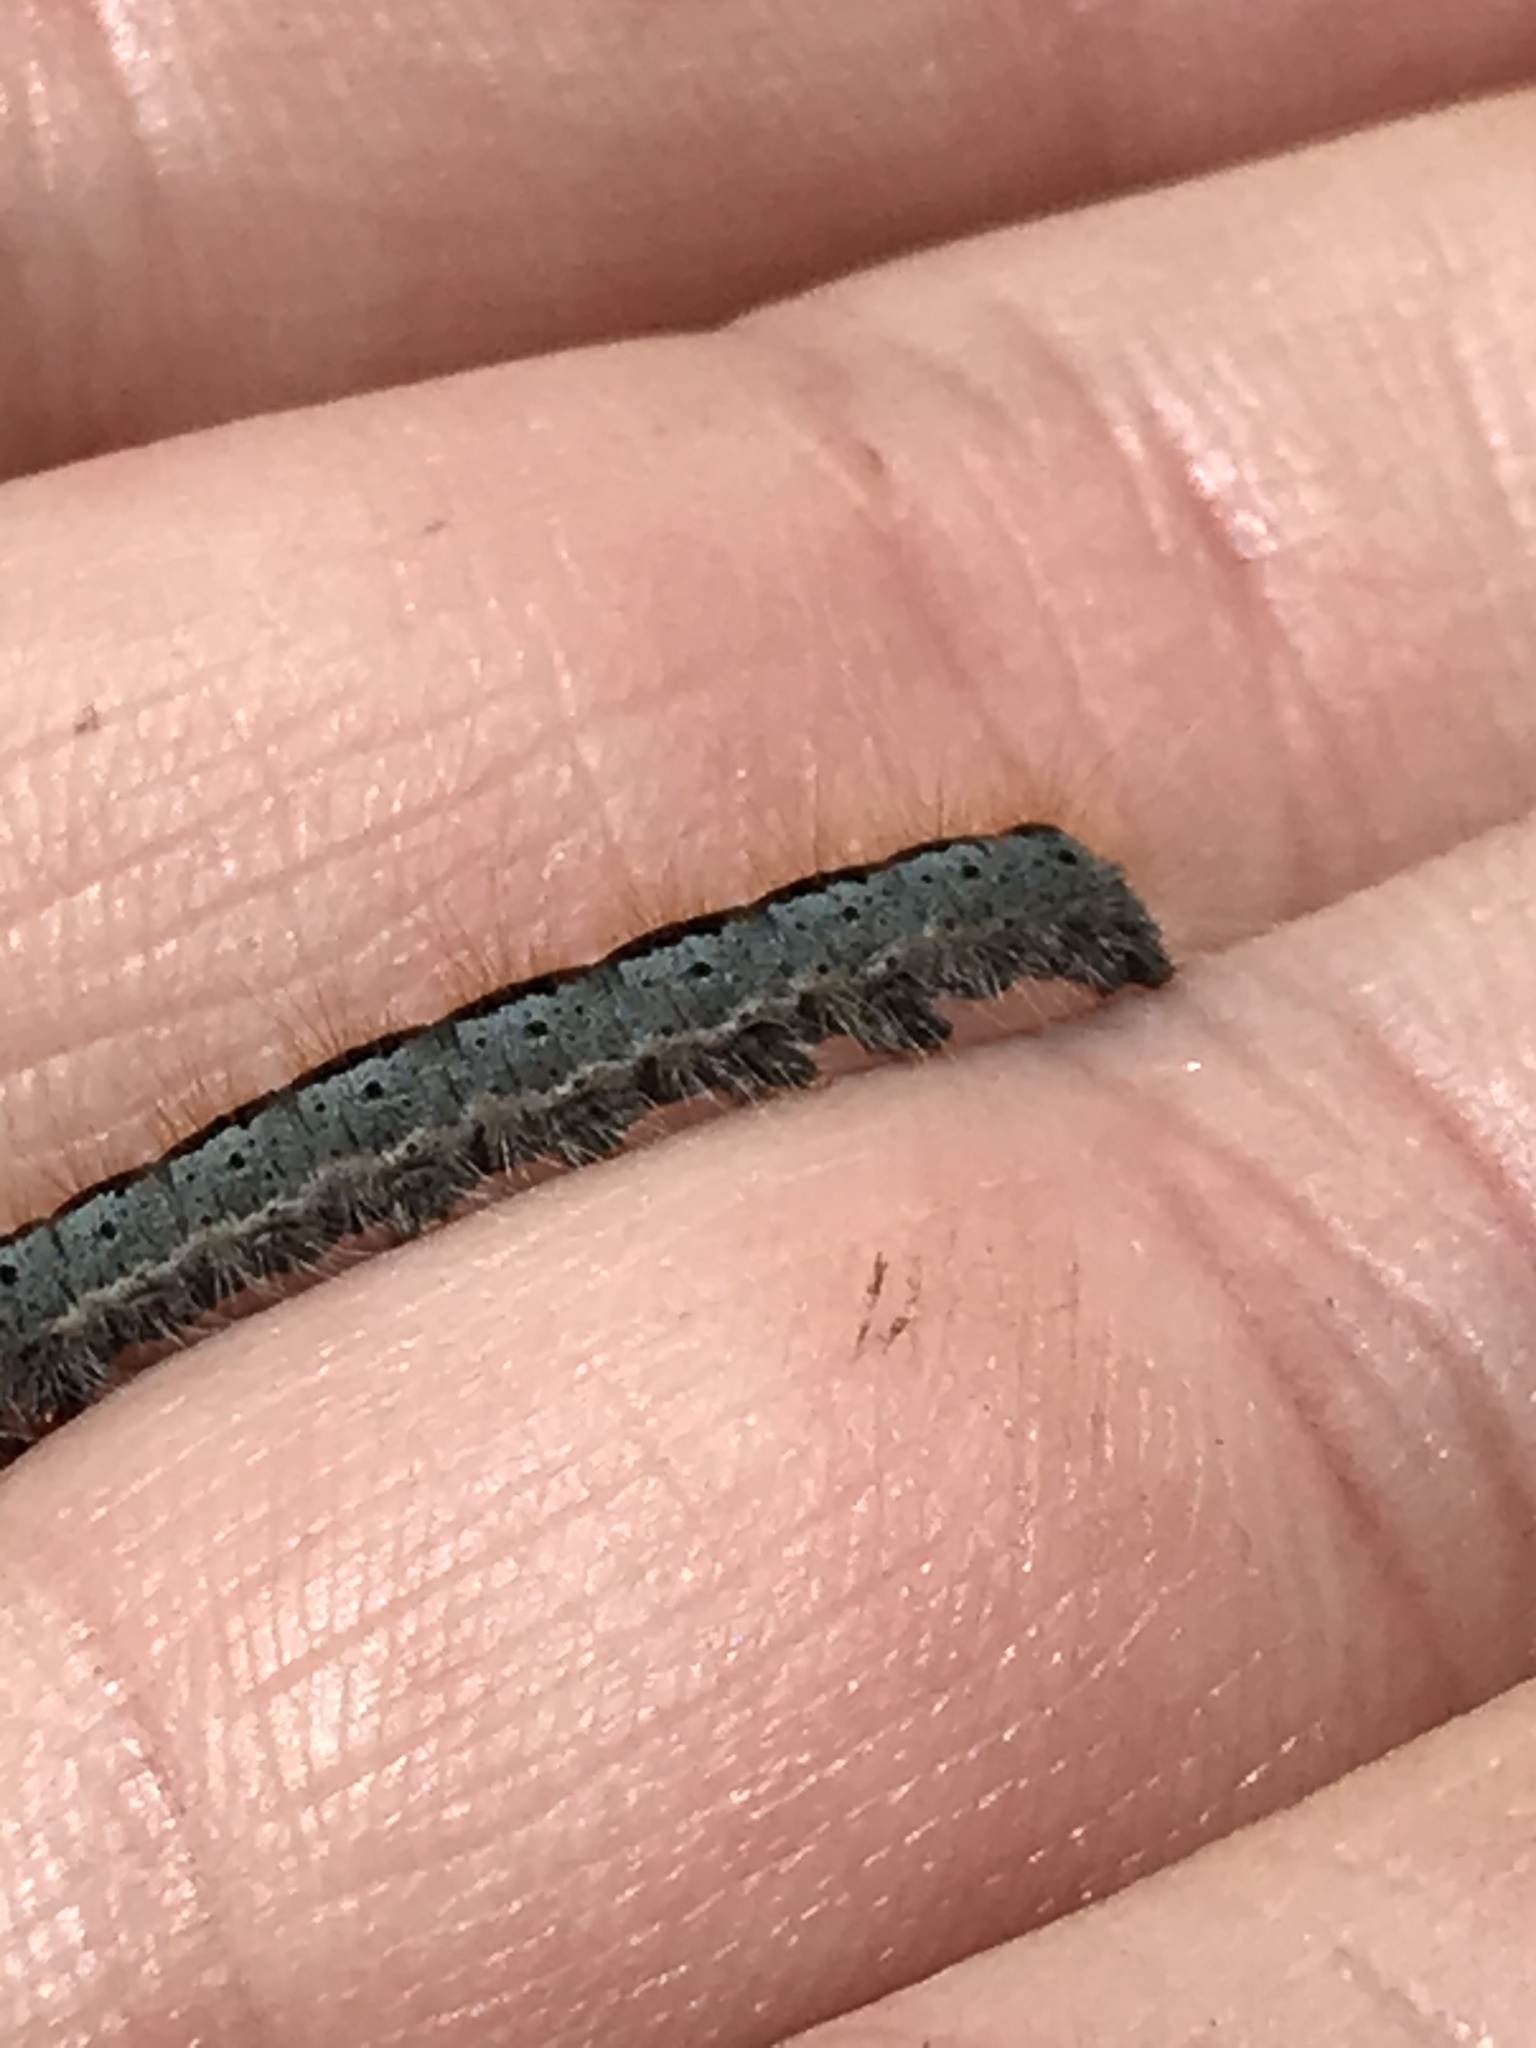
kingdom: Animalia
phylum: Arthropoda
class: Insecta
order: Lepidoptera
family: Lasiocampidae
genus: Malacosoma
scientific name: Malacosoma californica
